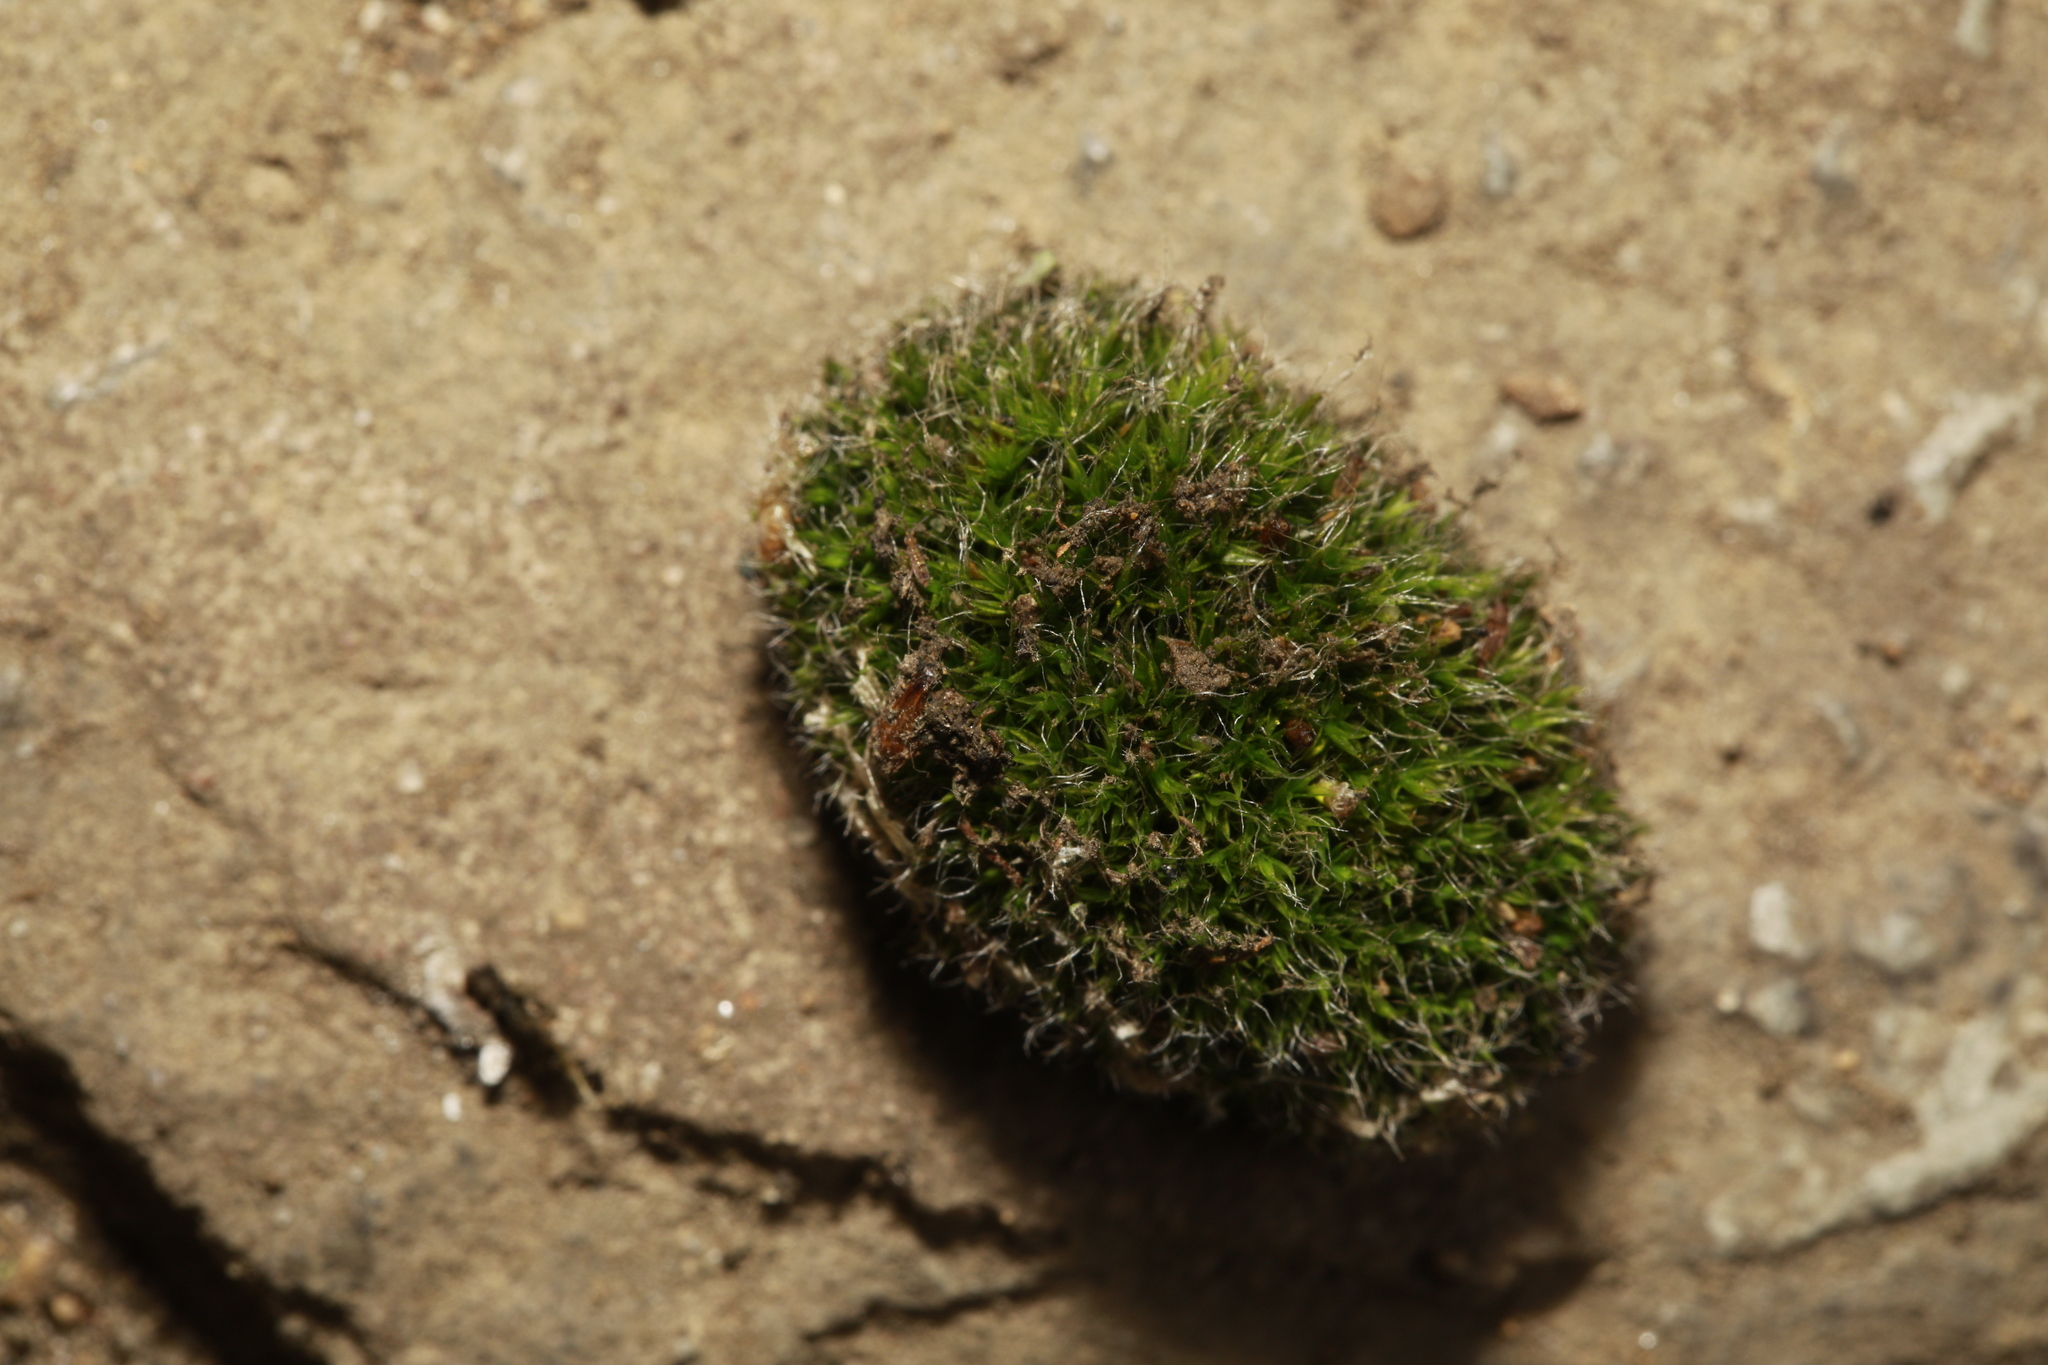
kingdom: Plantae
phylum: Bryophyta
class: Bryopsida
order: Grimmiales
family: Grimmiaceae
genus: Grimmia
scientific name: Grimmia pulvinata
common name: Grey-cushioned grimmia
